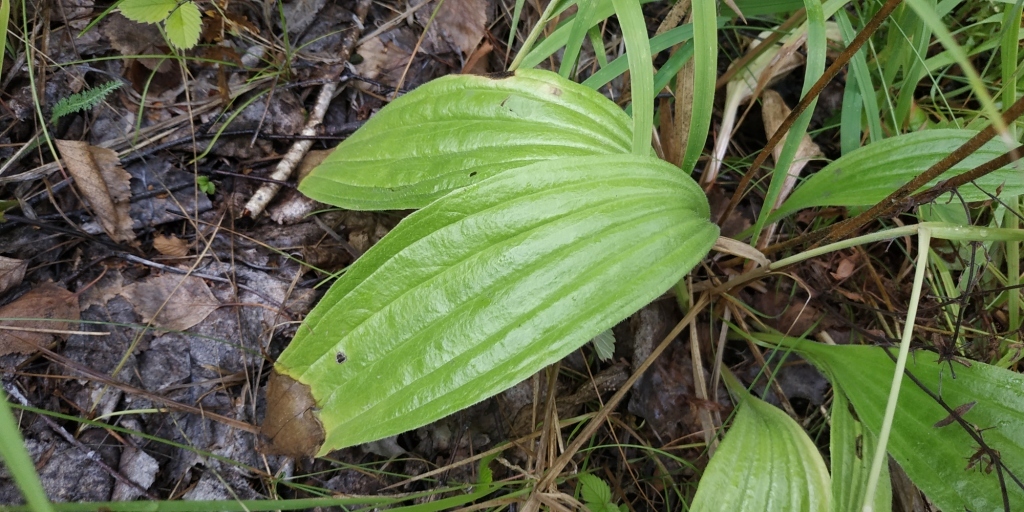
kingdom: Plantae
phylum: Tracheophyta
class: Magnoliopsida
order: Lamiales
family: Plantaginaceae
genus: Plantago
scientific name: Plantago urvillei
